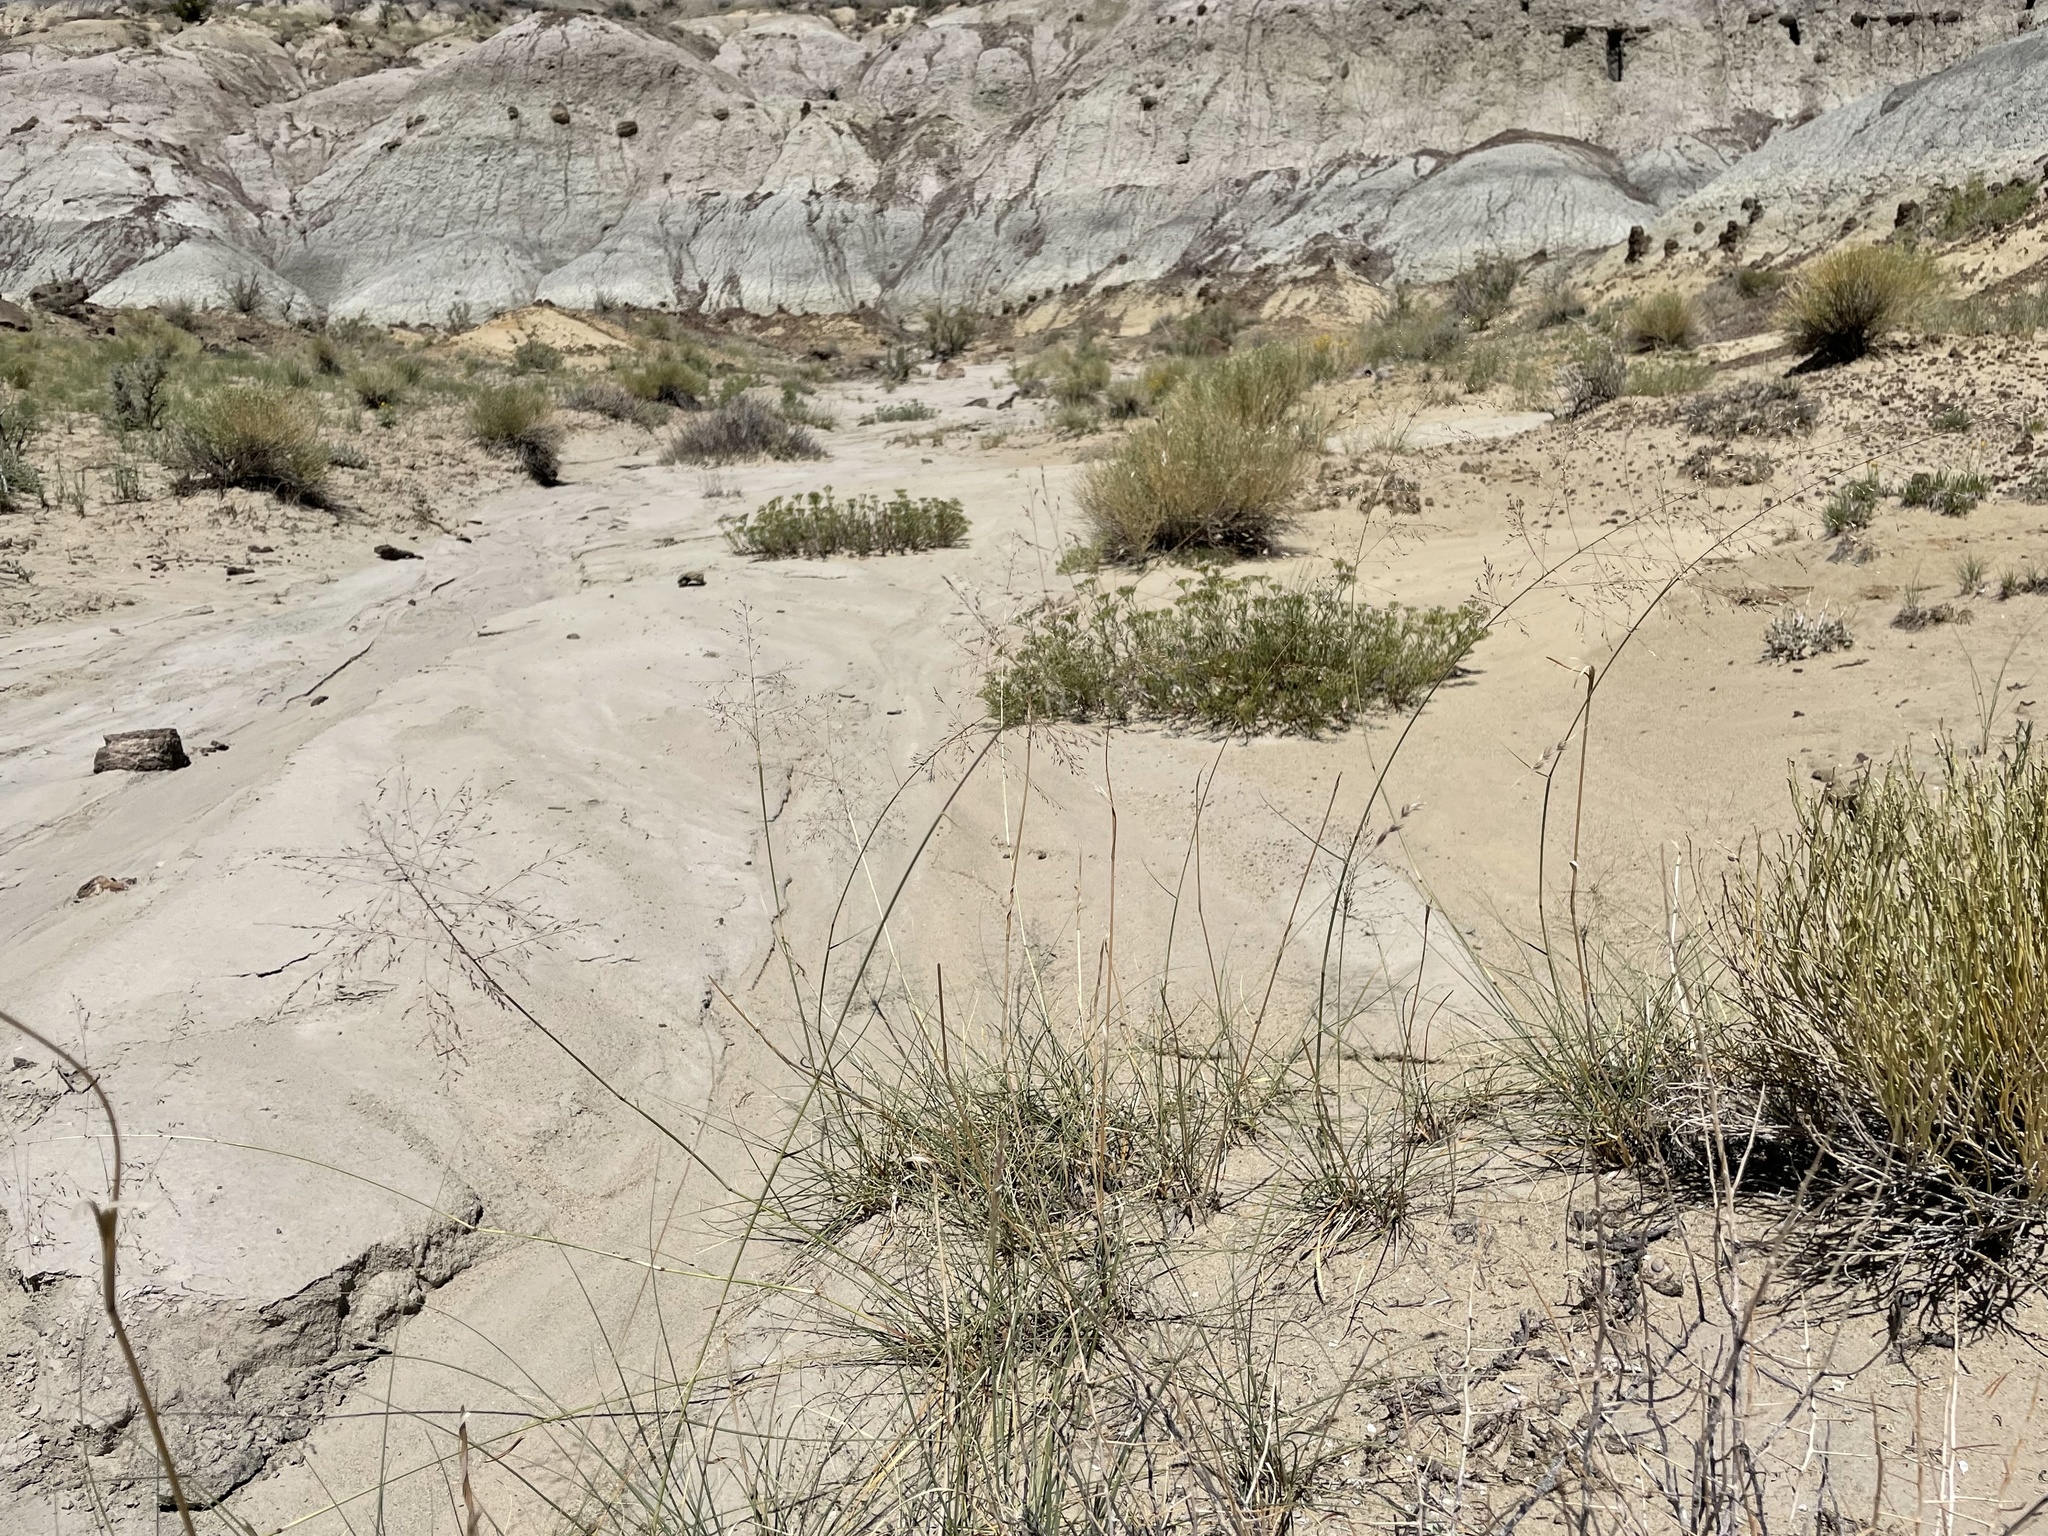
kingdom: Plantae
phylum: Tracheophyta
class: Liliopsida
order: Poales
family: Poaceae
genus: Sporobolus
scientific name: Sporobolus airoides
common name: Alkali sacaton
